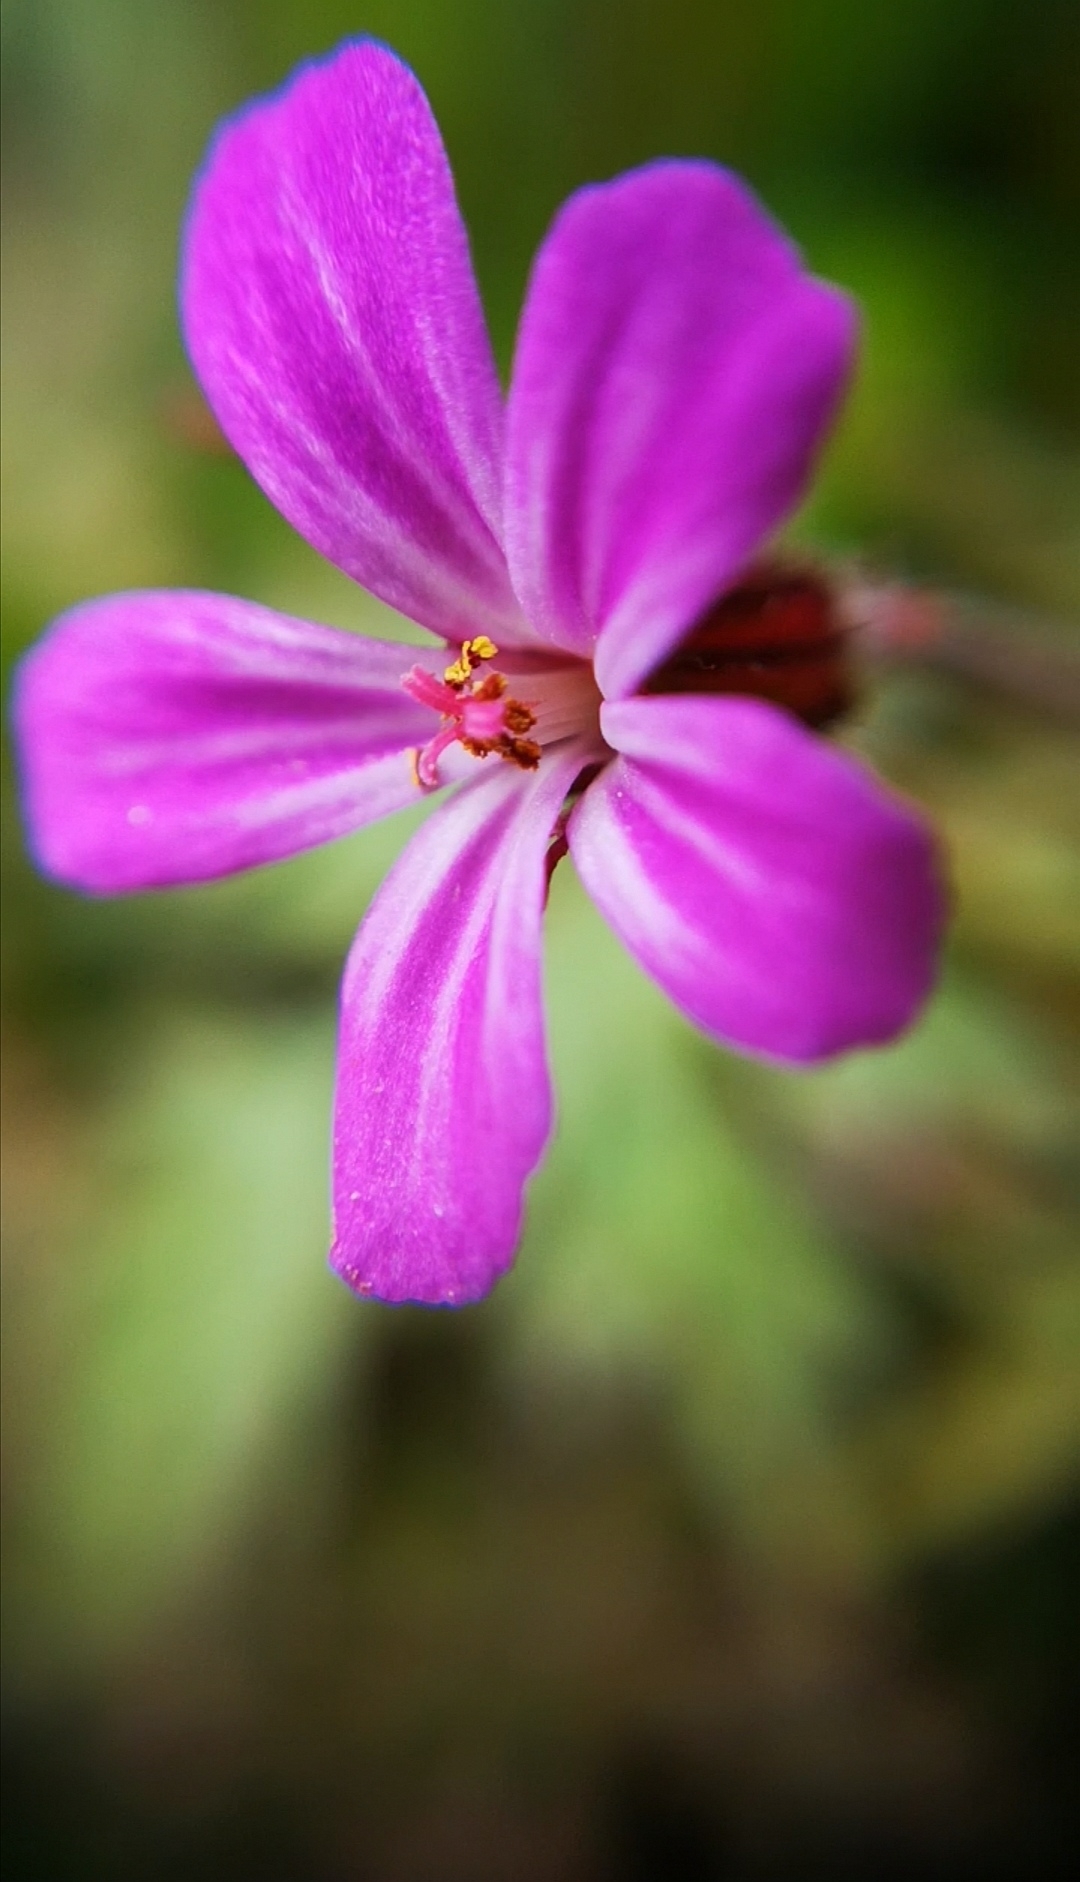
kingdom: Plantae
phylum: Tracheophyta
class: Magnoliopsida
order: Geraniales
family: Geraniaceae
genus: Geranium
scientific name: Geranium robertianum
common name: Herb-robert
